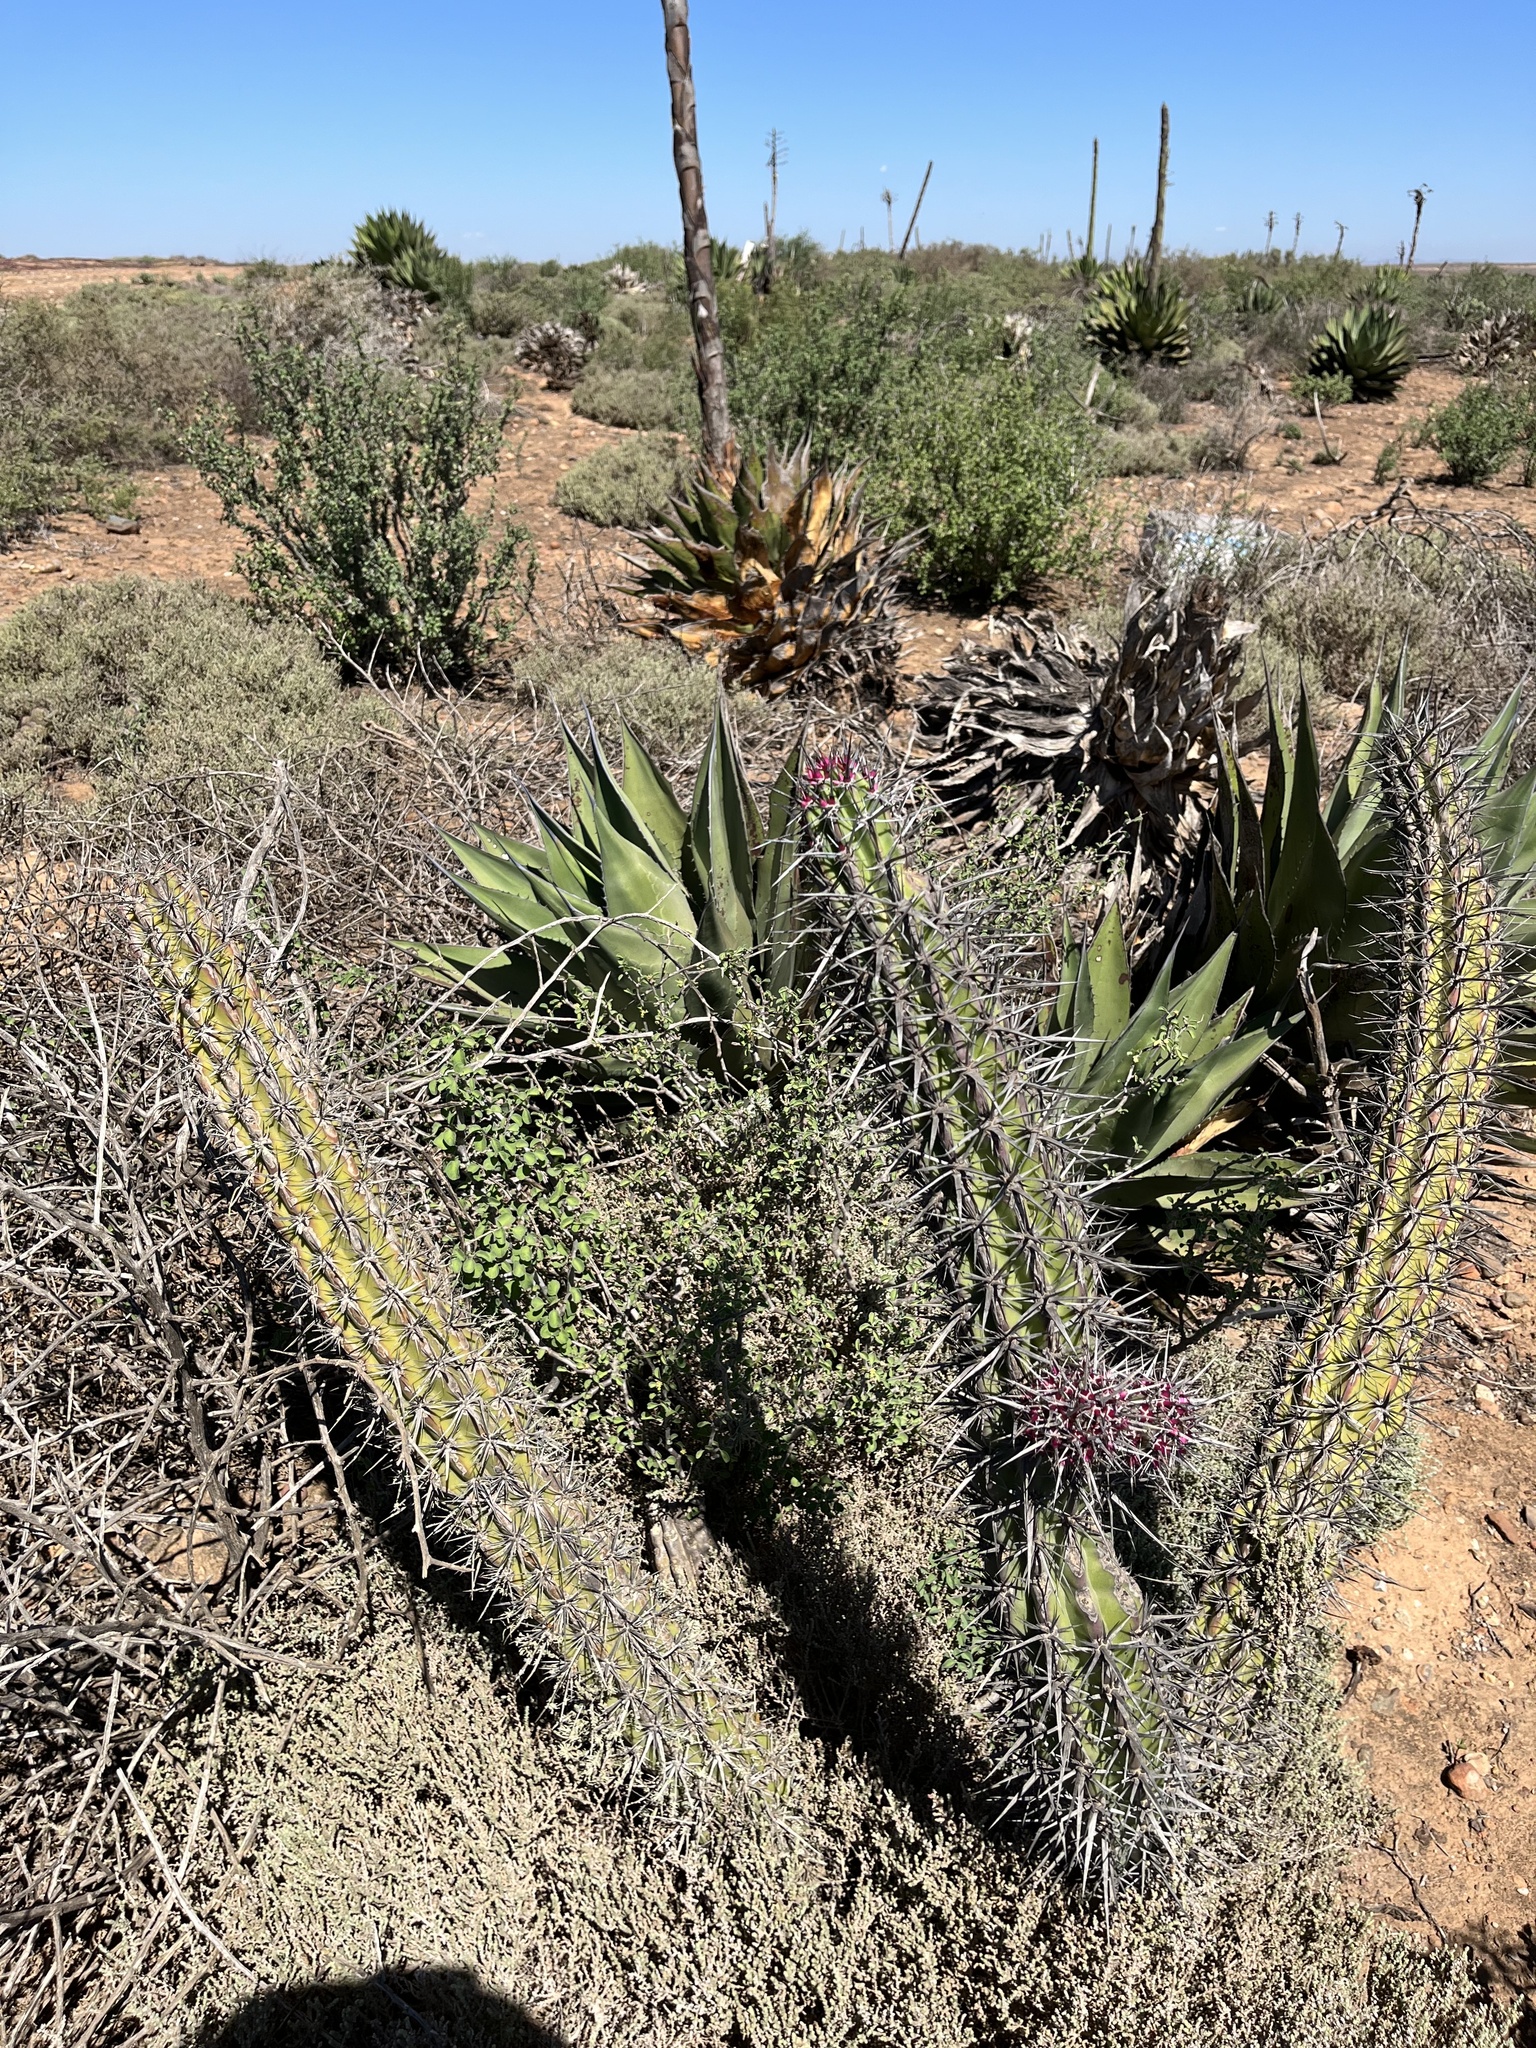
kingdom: Plantae
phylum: Tracheophyta
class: Magnoliopsida
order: Caryophyllales
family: Cactaceae
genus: Stenocereus
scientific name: Stenocereus gummosus
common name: Dagger cactus
